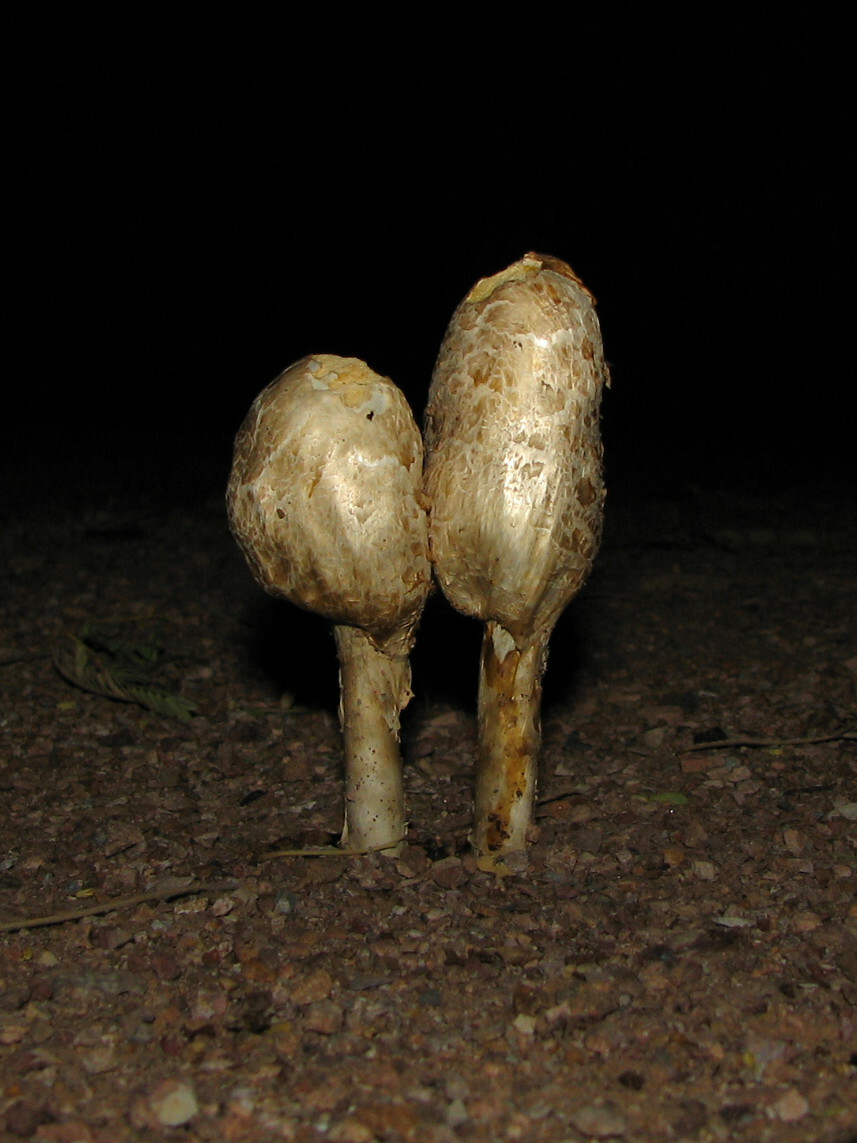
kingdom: Fungi
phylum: Basidiomycota
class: Agaricomycetes
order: Agaricales
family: Agaricaceae
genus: Podaxis
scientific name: Podaxis pistillaris
